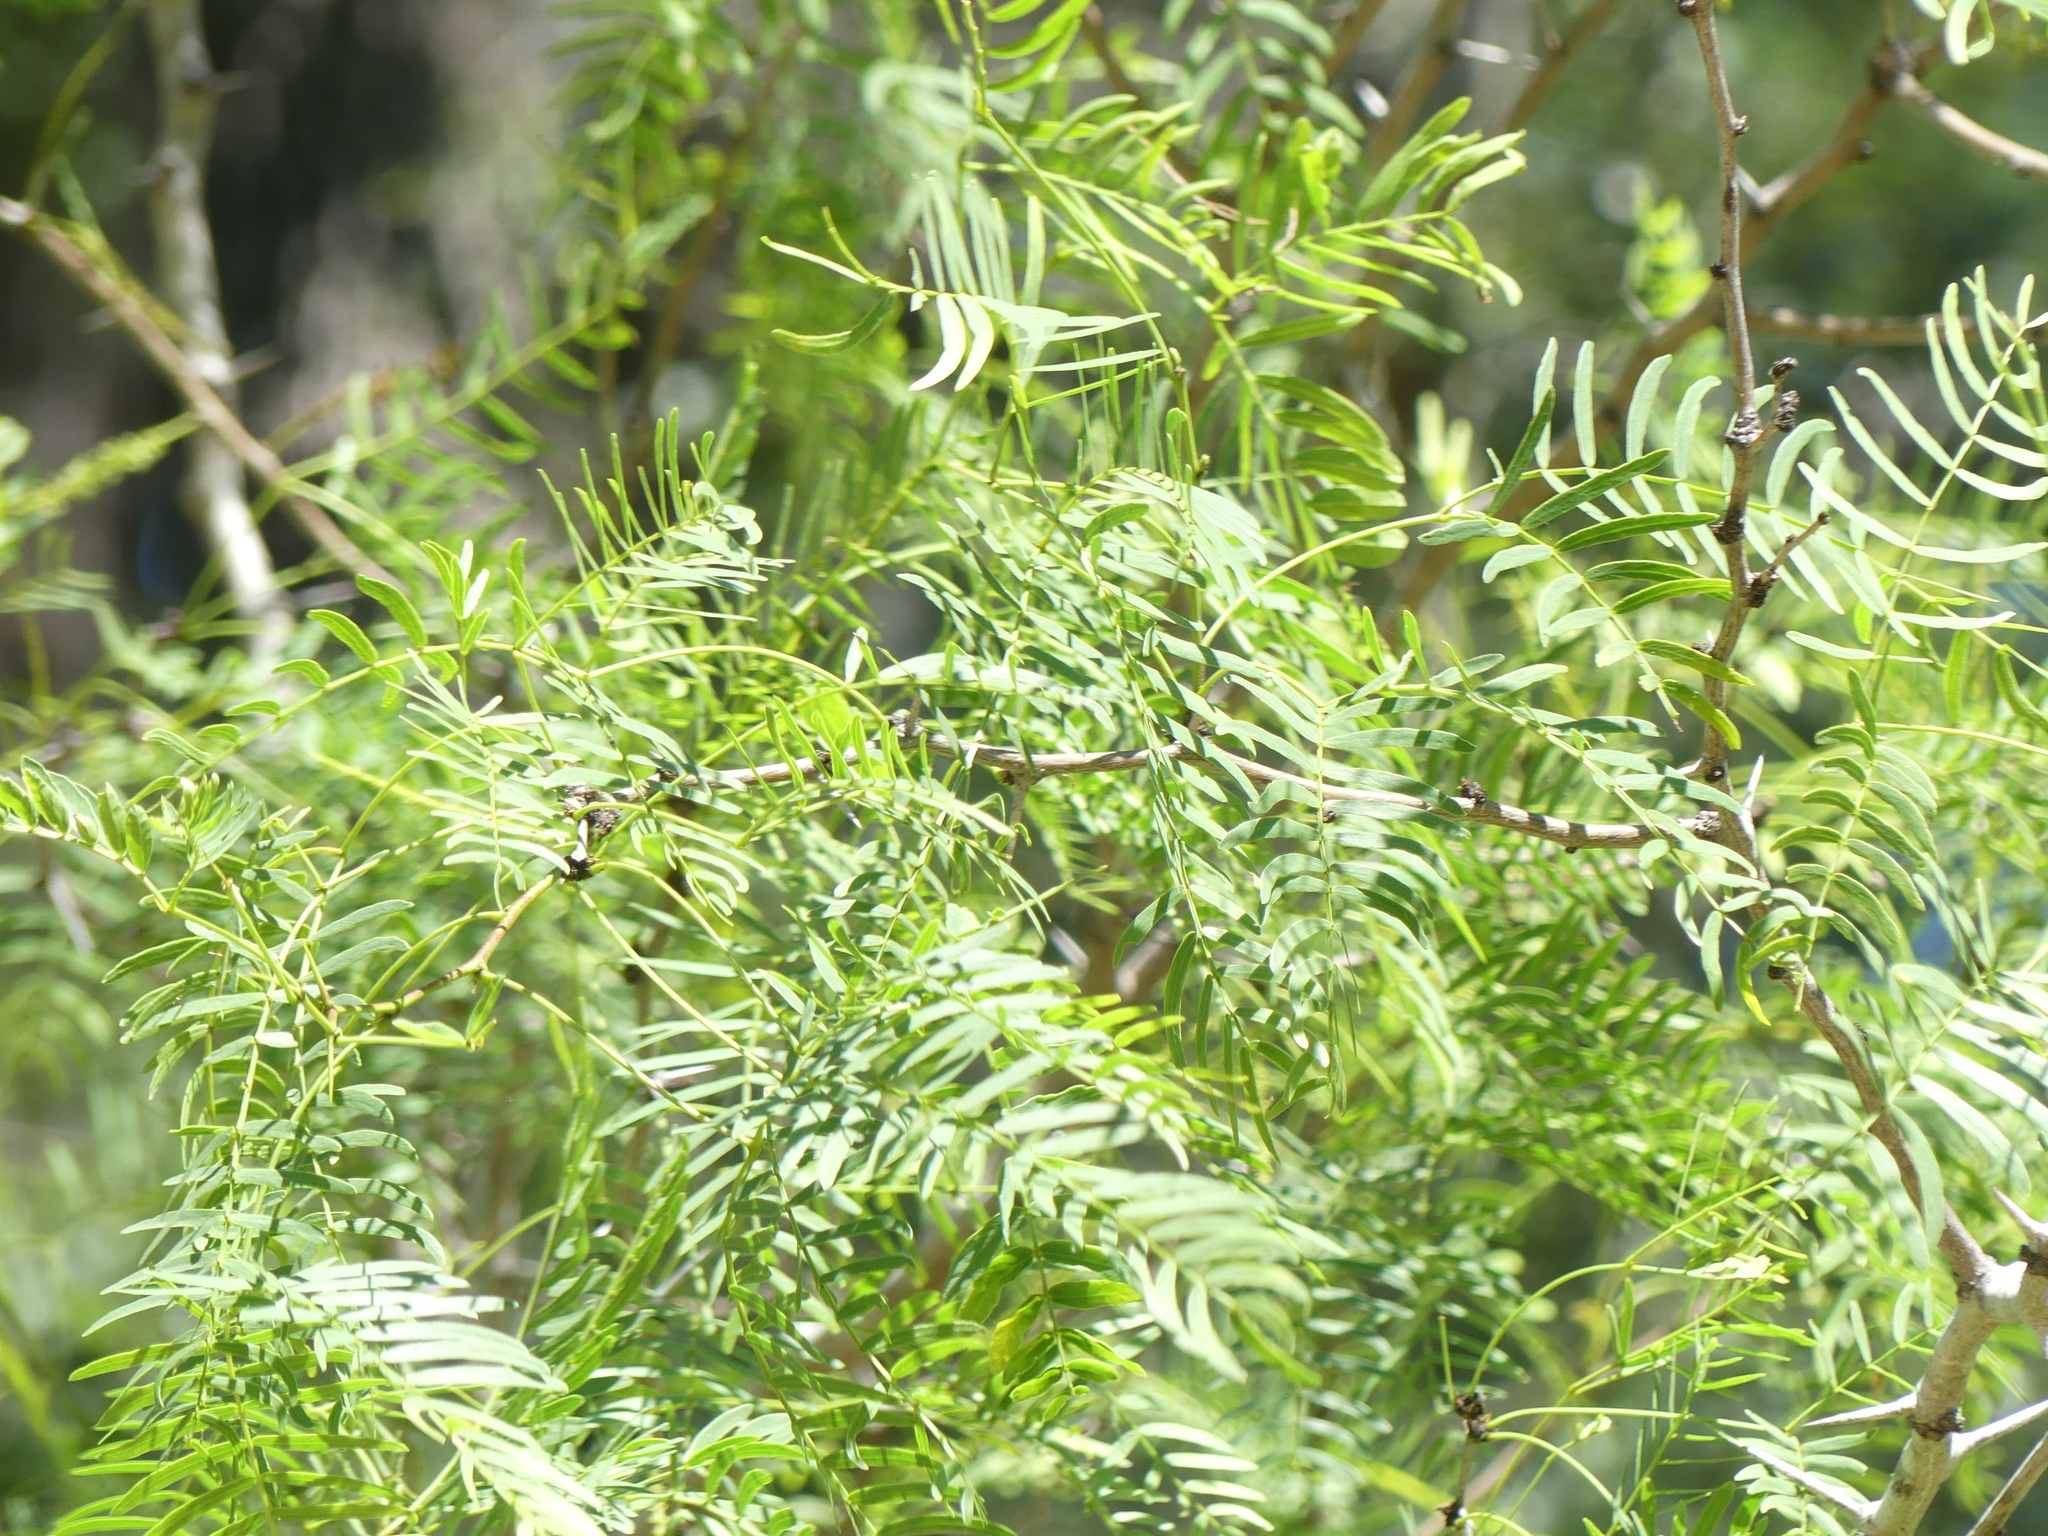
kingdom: Plantae
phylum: Tracheophyta
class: Magnoliopsida
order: Fabales
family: Fabaceae
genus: Prosopis
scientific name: Prosopis glandulosa
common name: Honey mesquite
